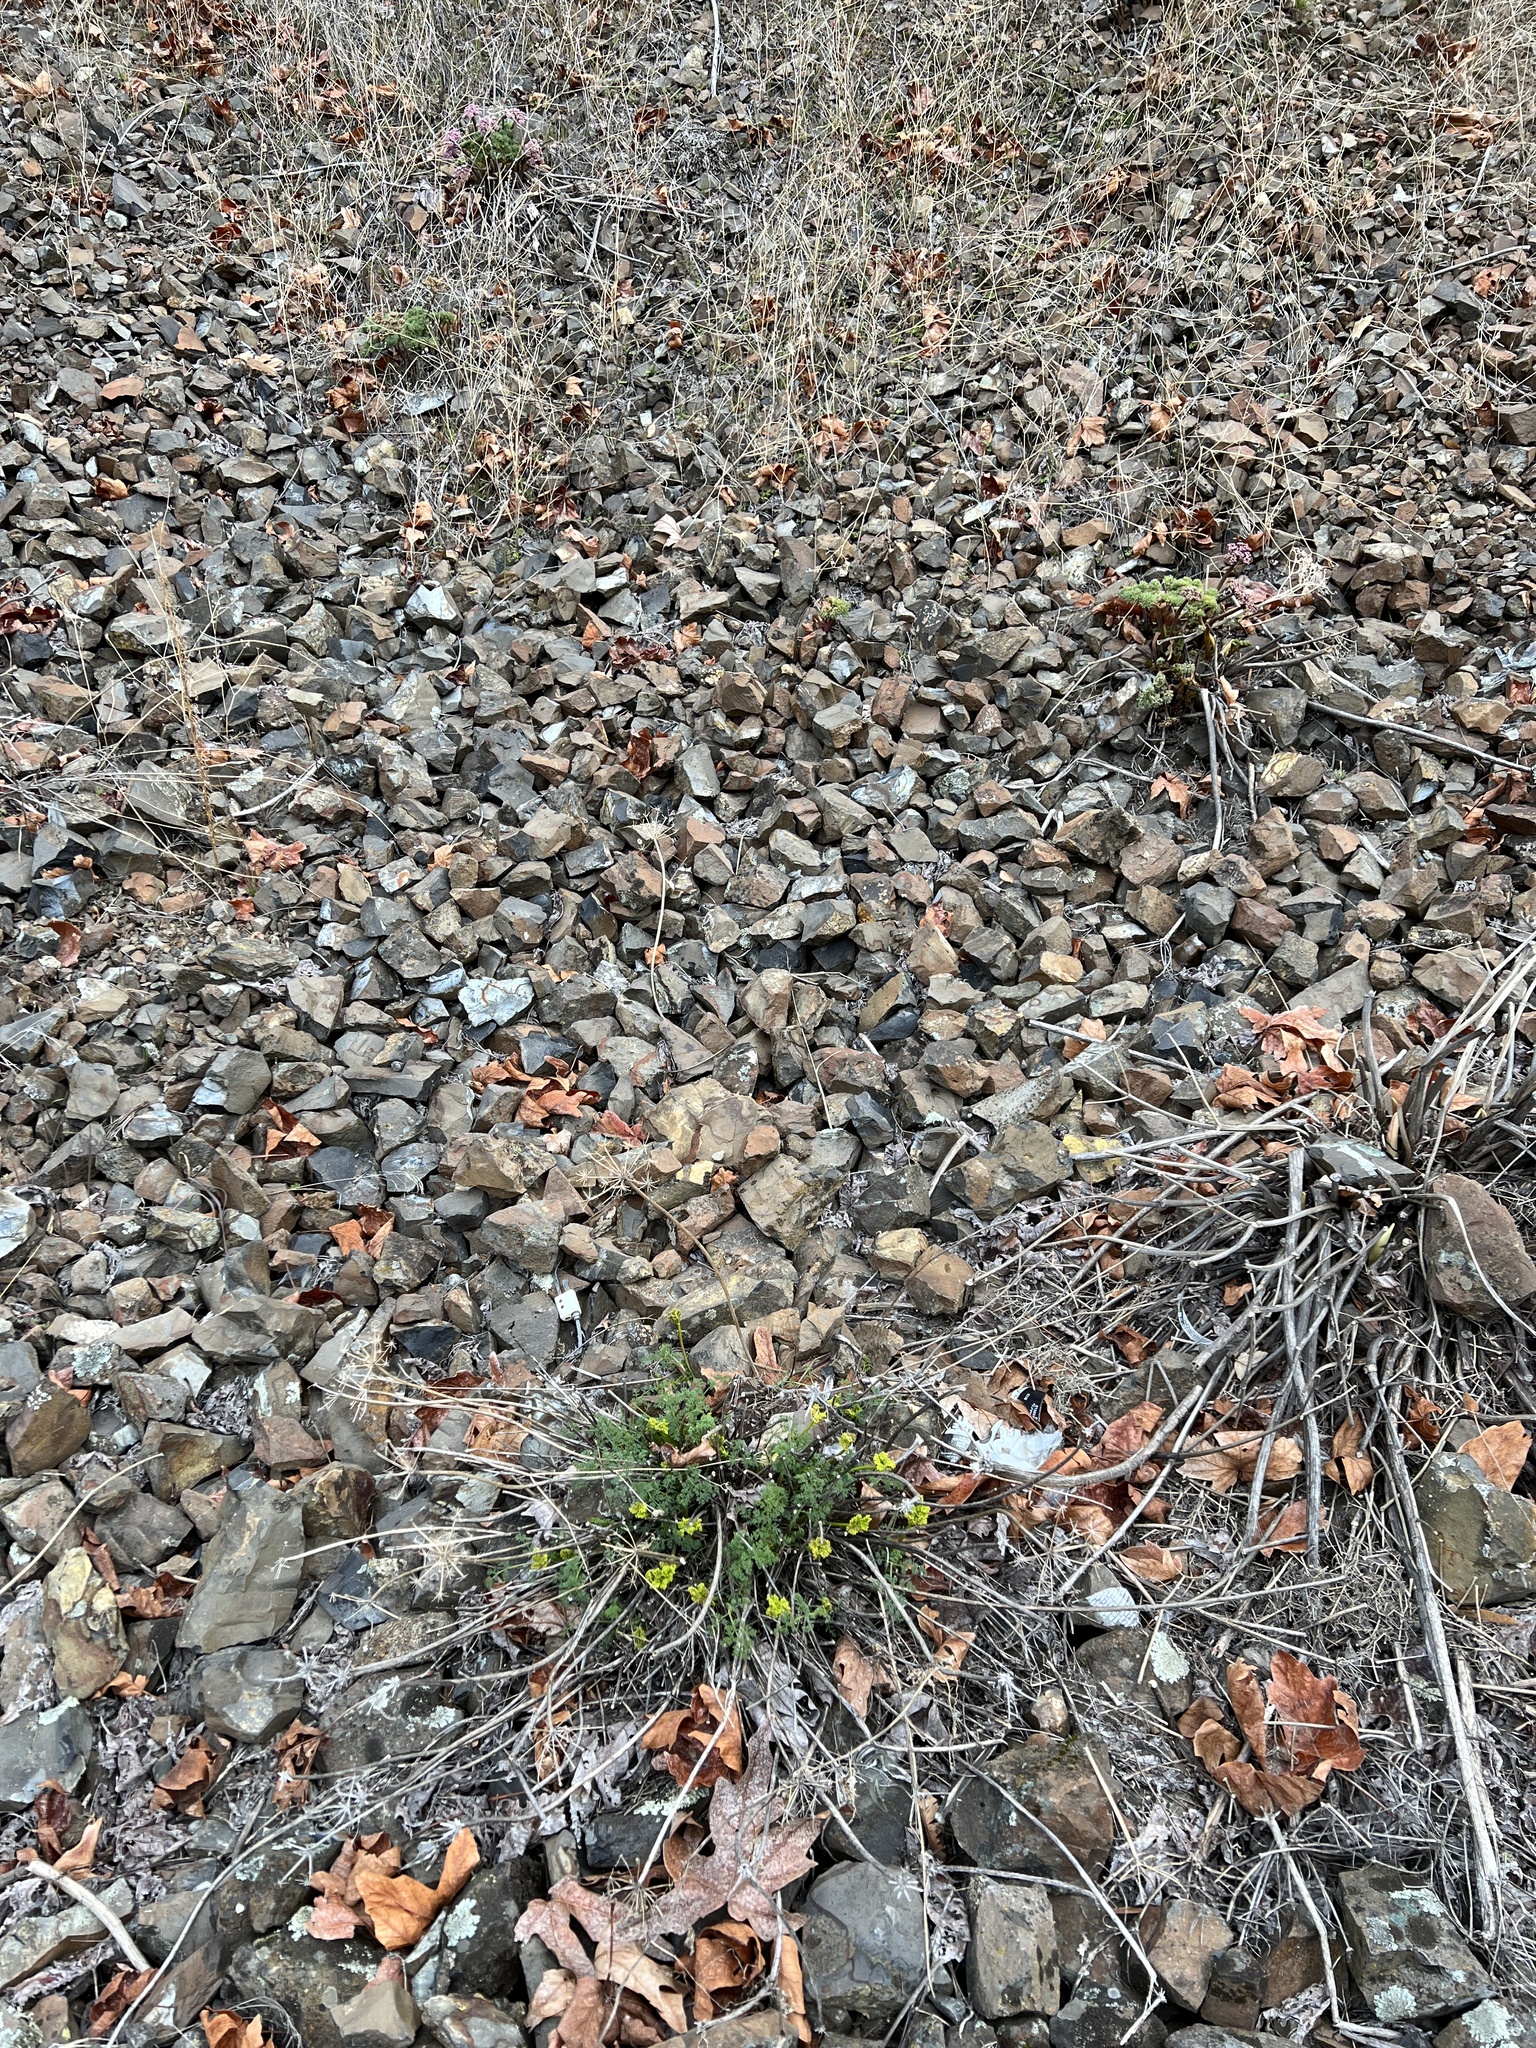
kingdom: Plantae
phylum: Tracheophyta
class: Magnoliopsida
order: Apiales
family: Apiaceae
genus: Lomatium
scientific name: Lomatium papilioniferum
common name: Butterfly lomatium
